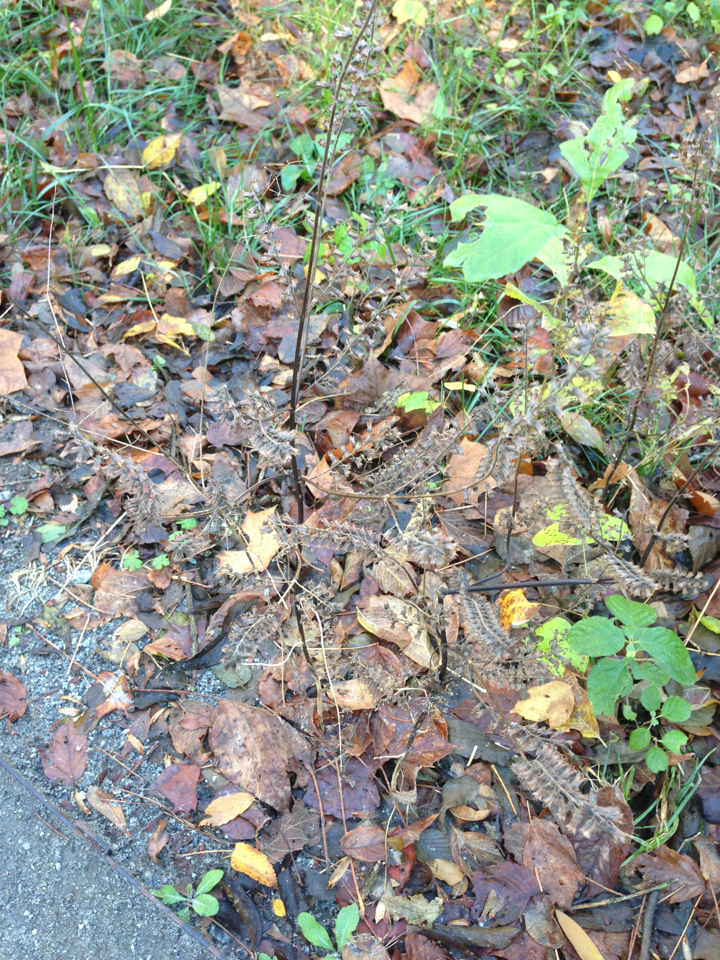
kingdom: Plantae
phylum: Tracheophyta
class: Magnoliopsida
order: Lamiales
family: Lamiaceae
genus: Perilla
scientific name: Perilla frutescens
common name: Perilla
